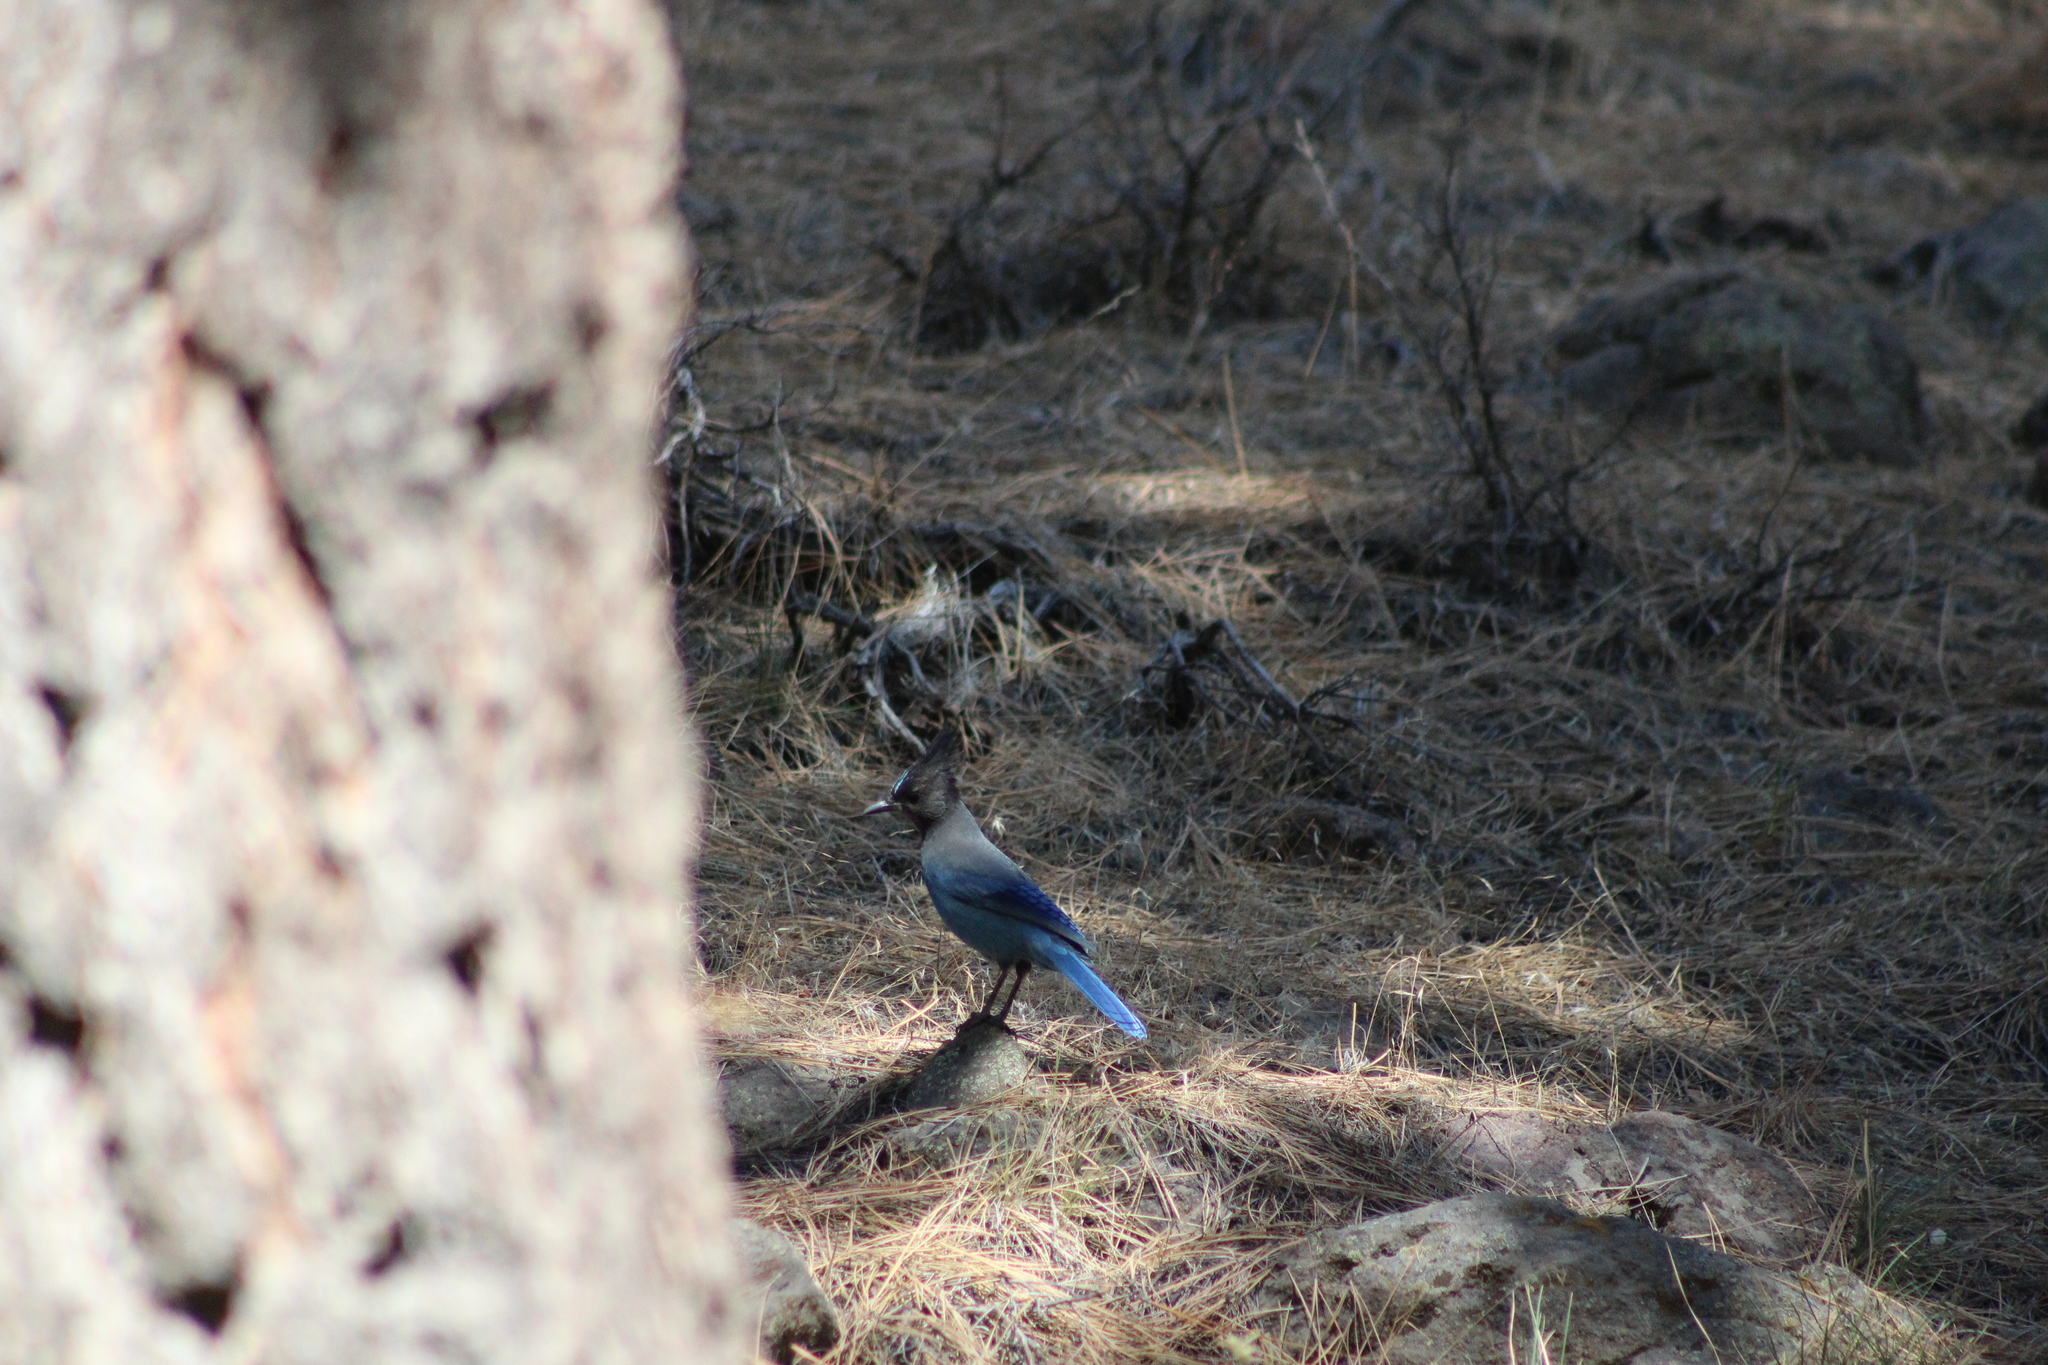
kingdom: Animalia
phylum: Chordata
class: Aves
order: Passeriformes
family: Corvidae
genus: Cyanocitta
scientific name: Cyanocitta stelleri
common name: Steller's jay
